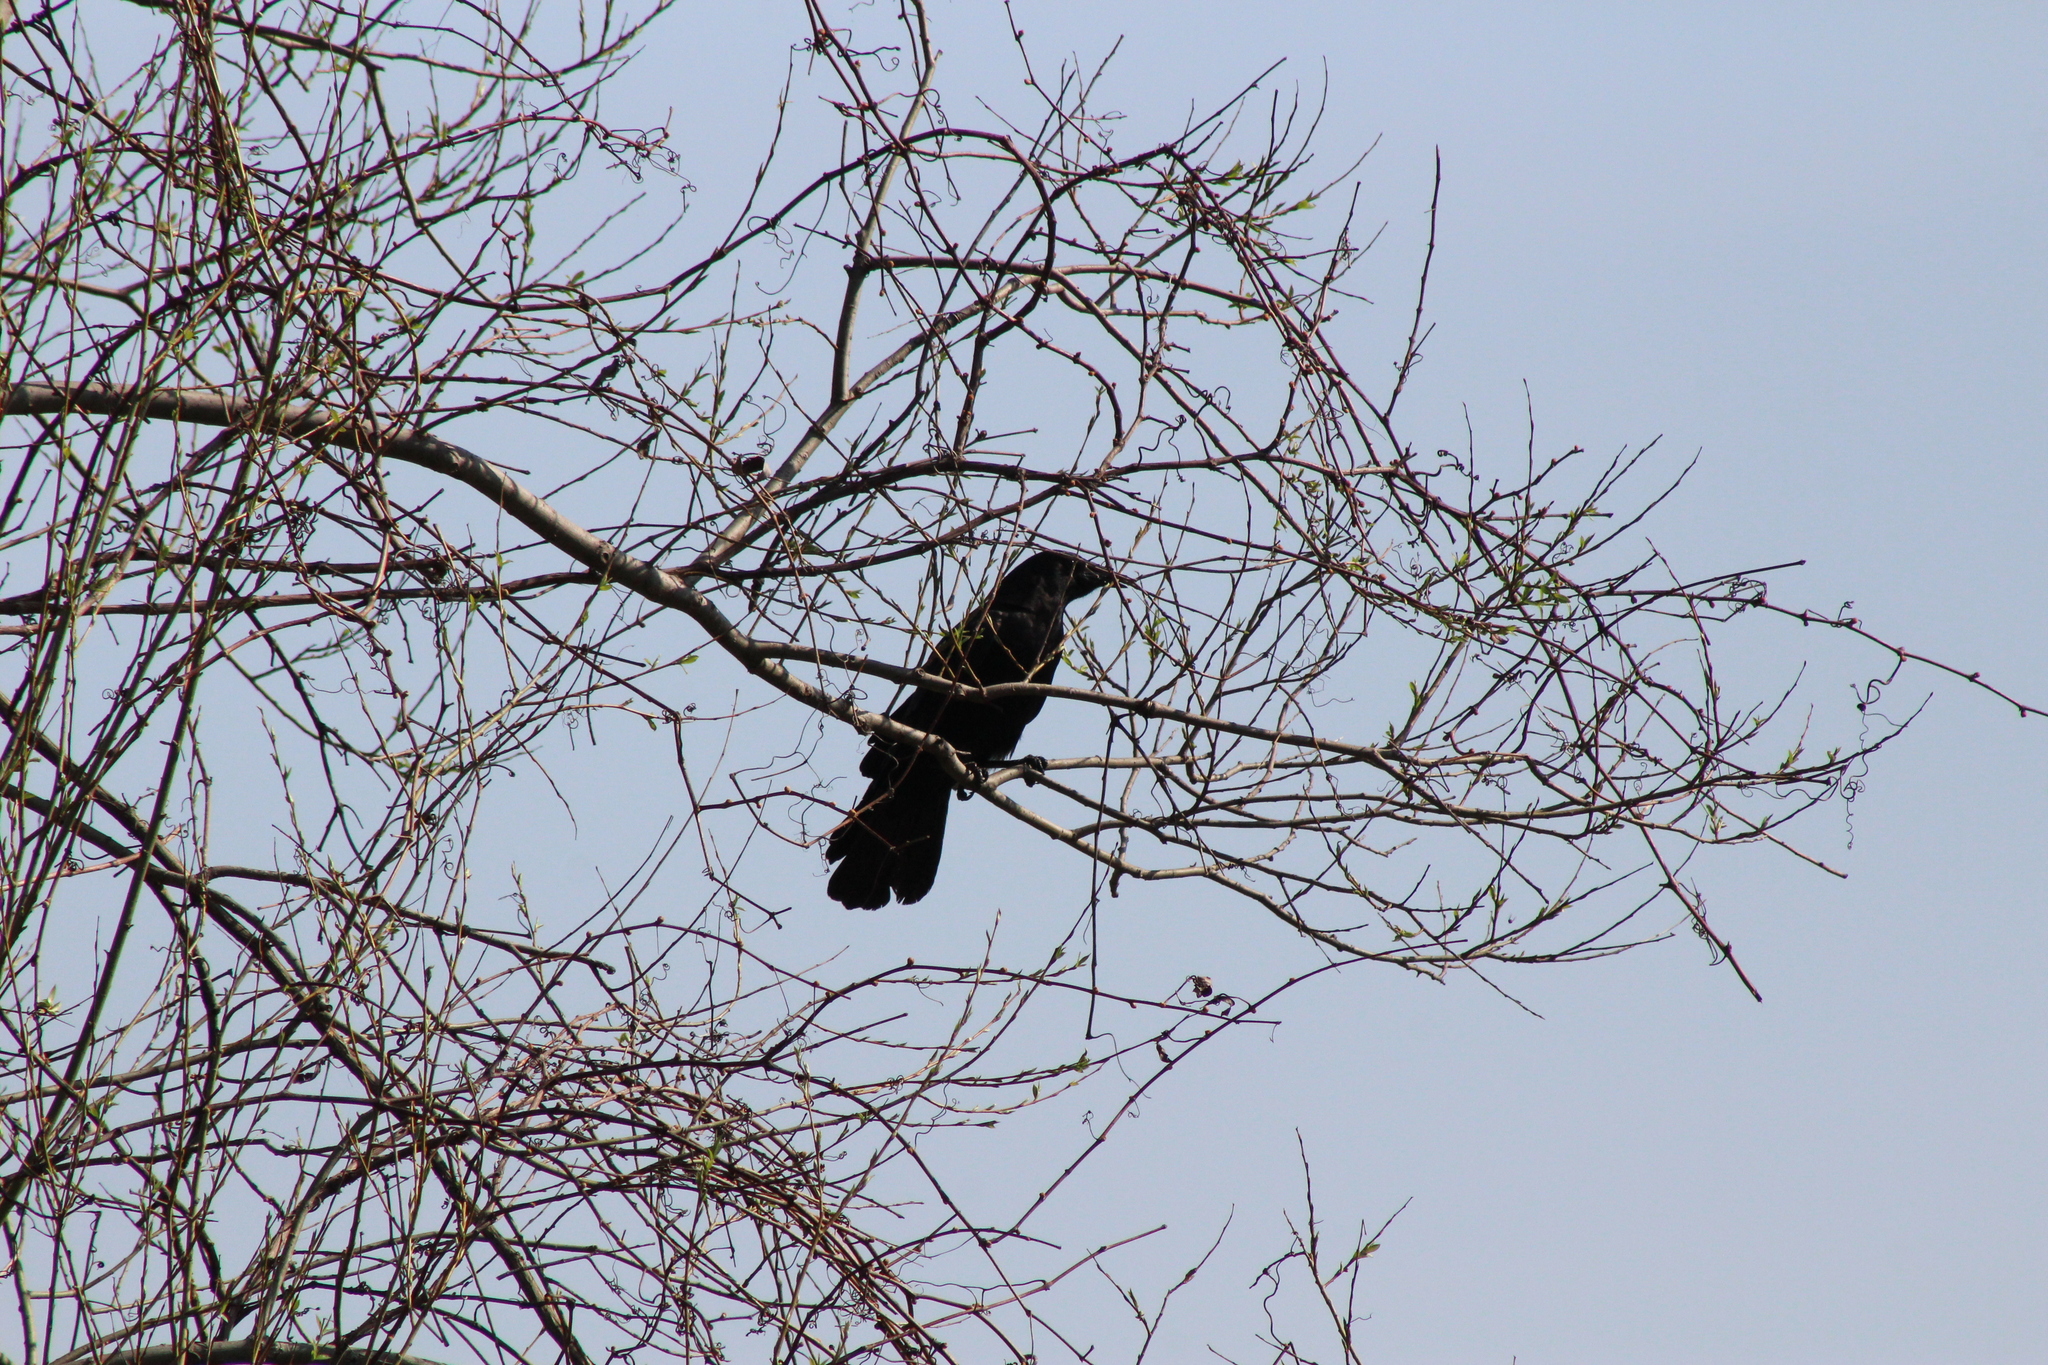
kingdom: Animalia
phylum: Chordata
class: Aves
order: Passeriformes
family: Corvidae
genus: Corvus
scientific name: Corvus brachyrhynchos
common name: American crow
